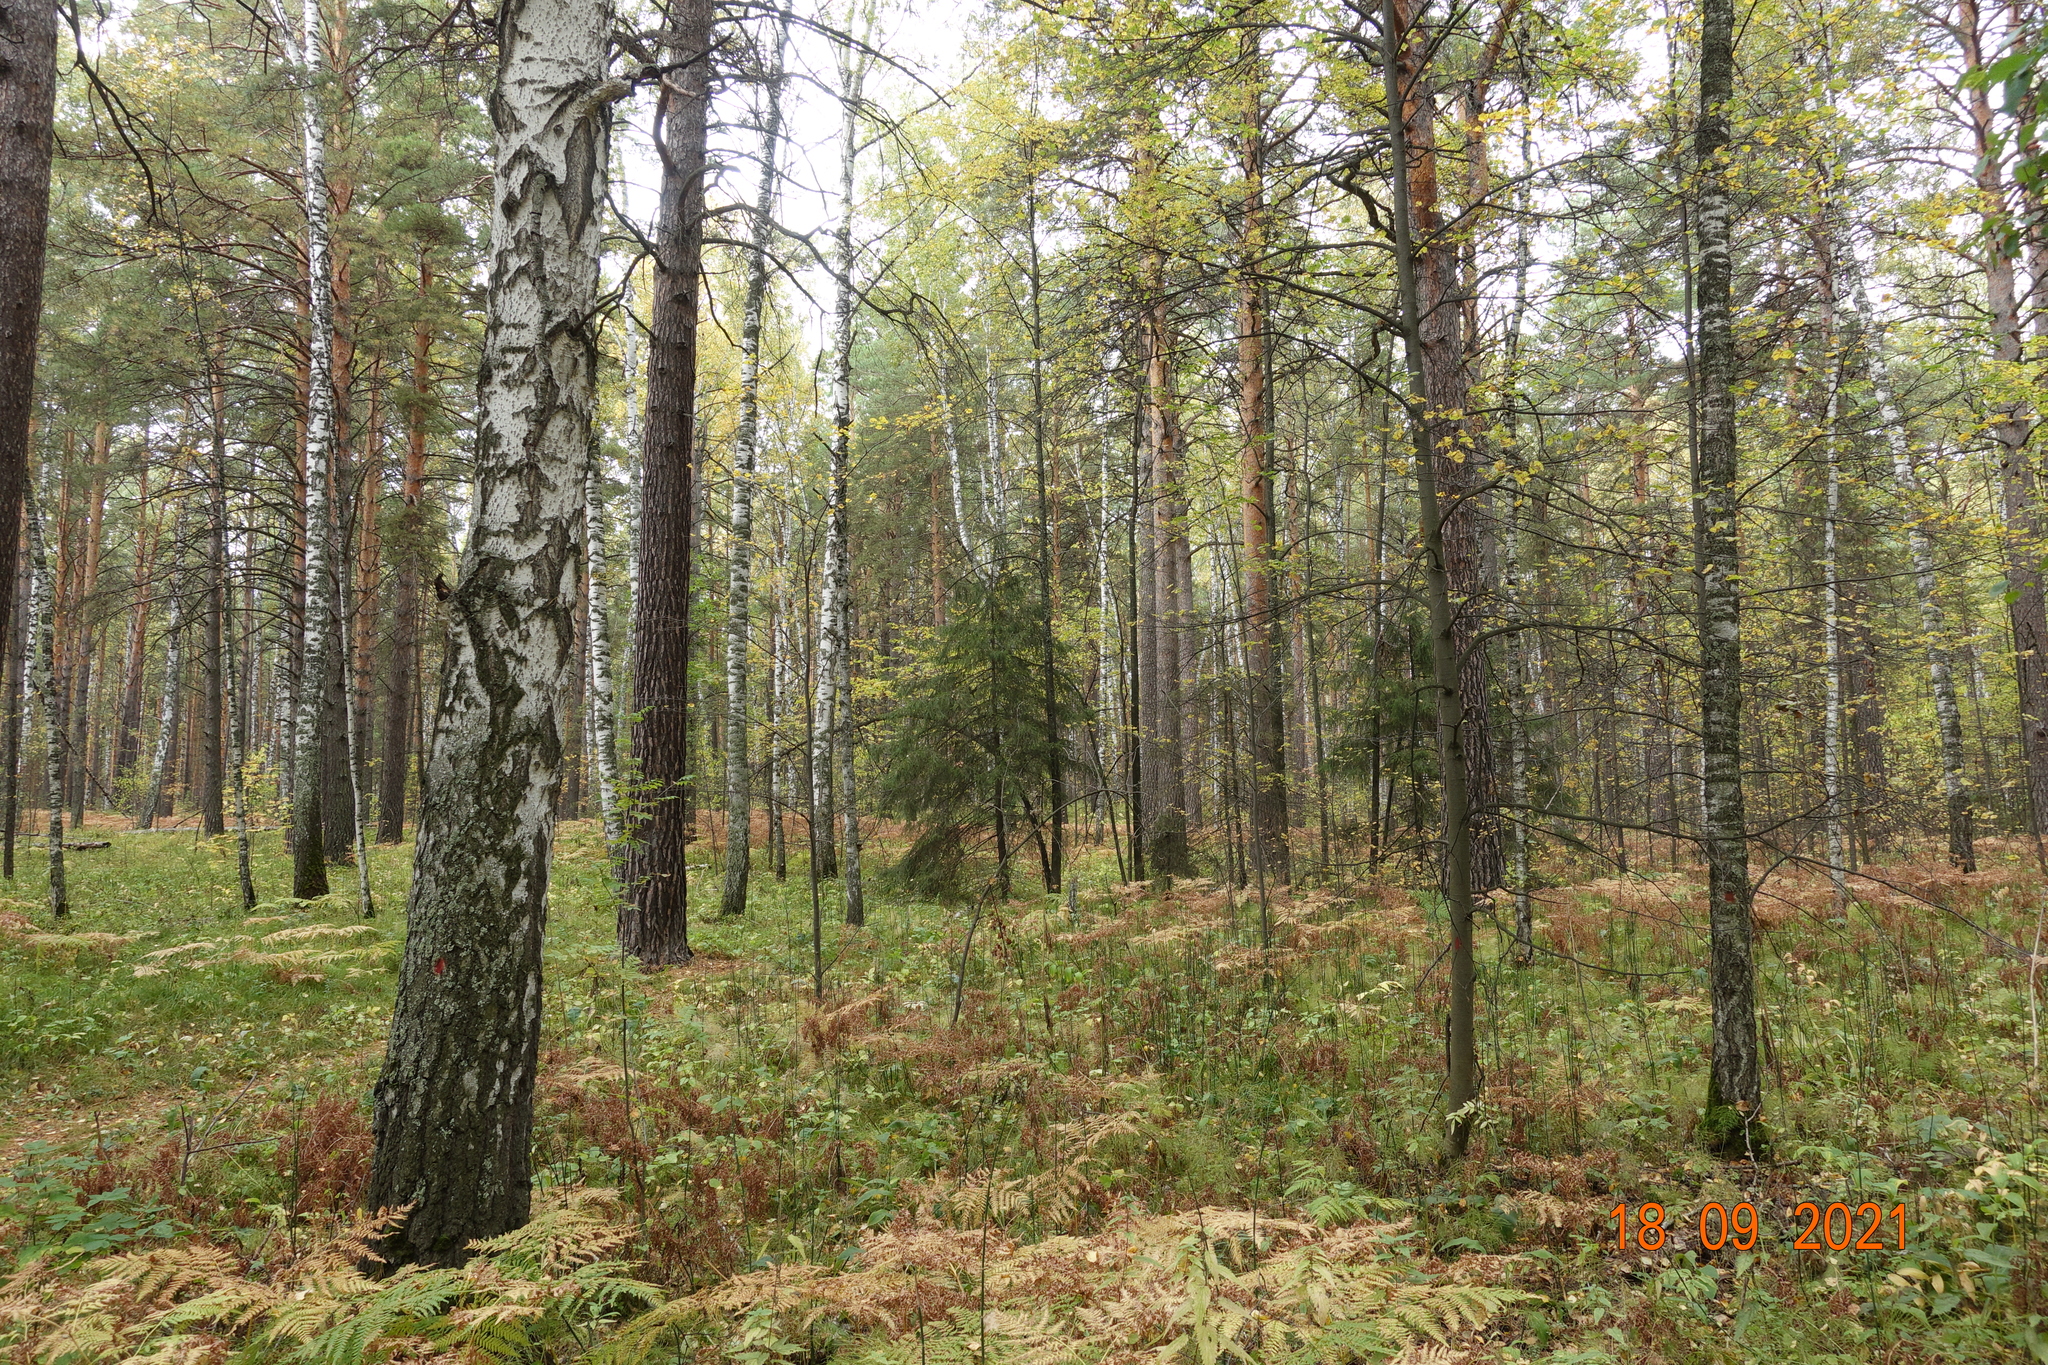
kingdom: Plantae
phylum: Tracheophyta
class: Magnoliopsida
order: Fagales
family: Betulaceae
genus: Betula
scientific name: Betula pendula
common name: Silver birch
